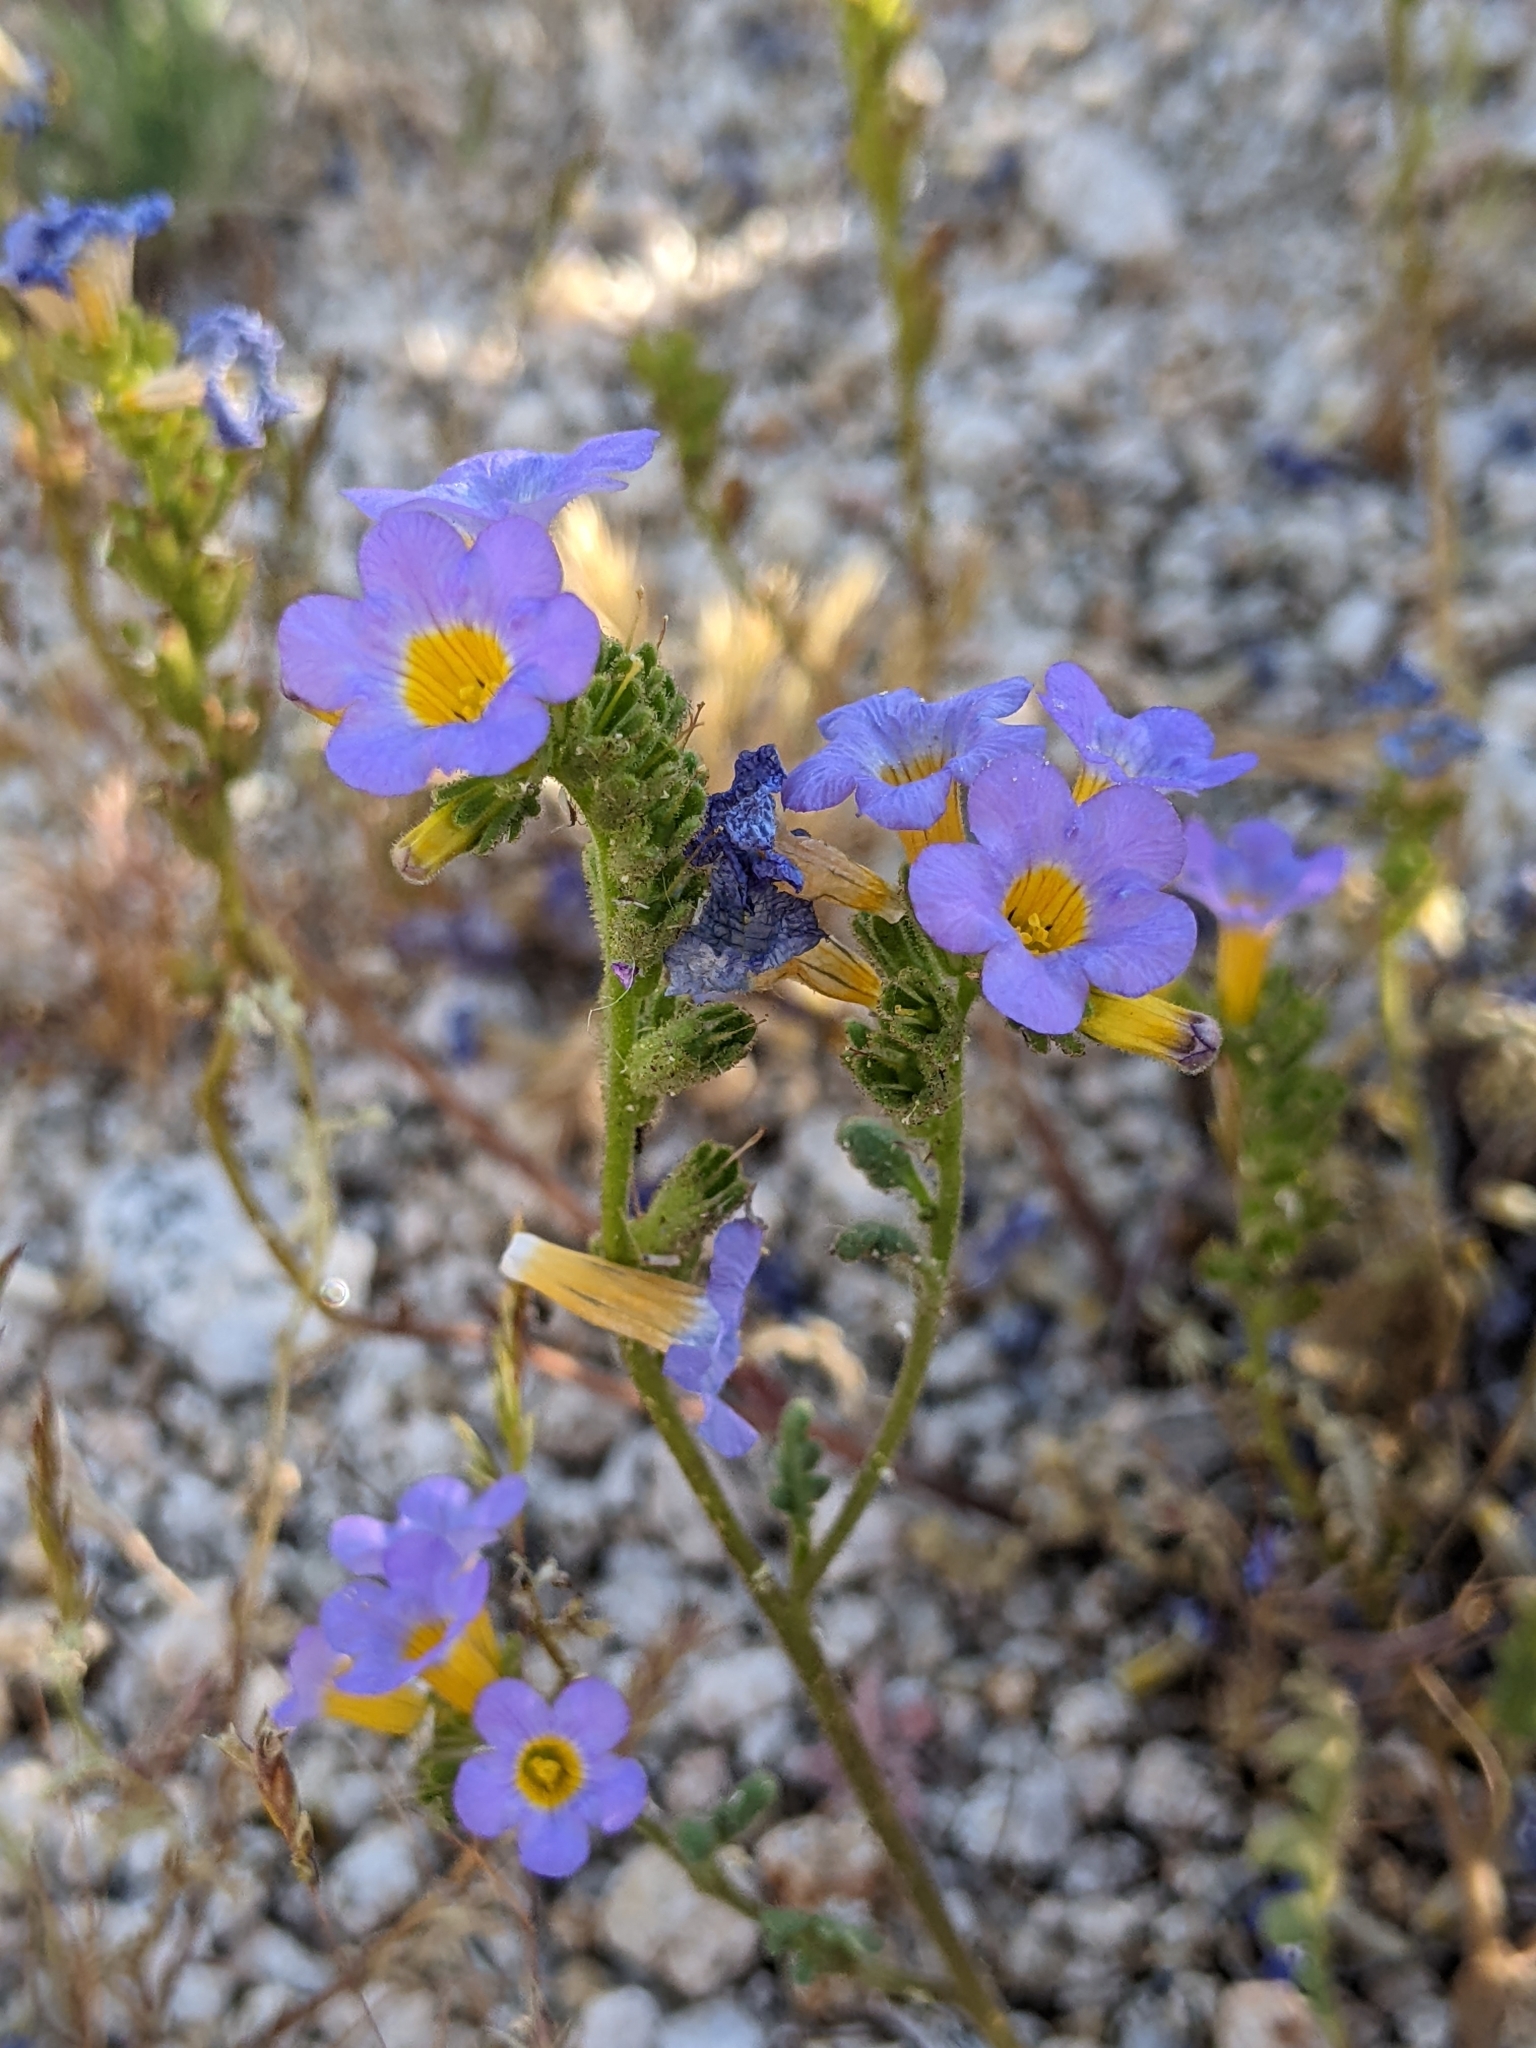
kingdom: Plantae
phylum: Tracheophyta
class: Magnoliopsida
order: Boraginales
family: Hydrophyllaceae
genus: Phacelia
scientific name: Phacelia fremontii
